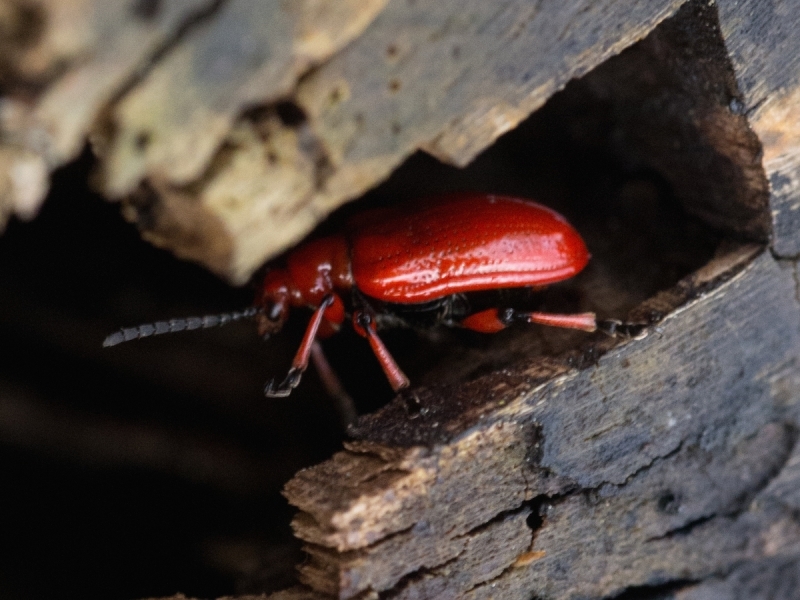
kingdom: Animalia
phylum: Arthropoda
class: Insecta
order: Coleoptera
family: Chrysomelidae
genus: Lilioceris
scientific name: Lilioceris merdigera
